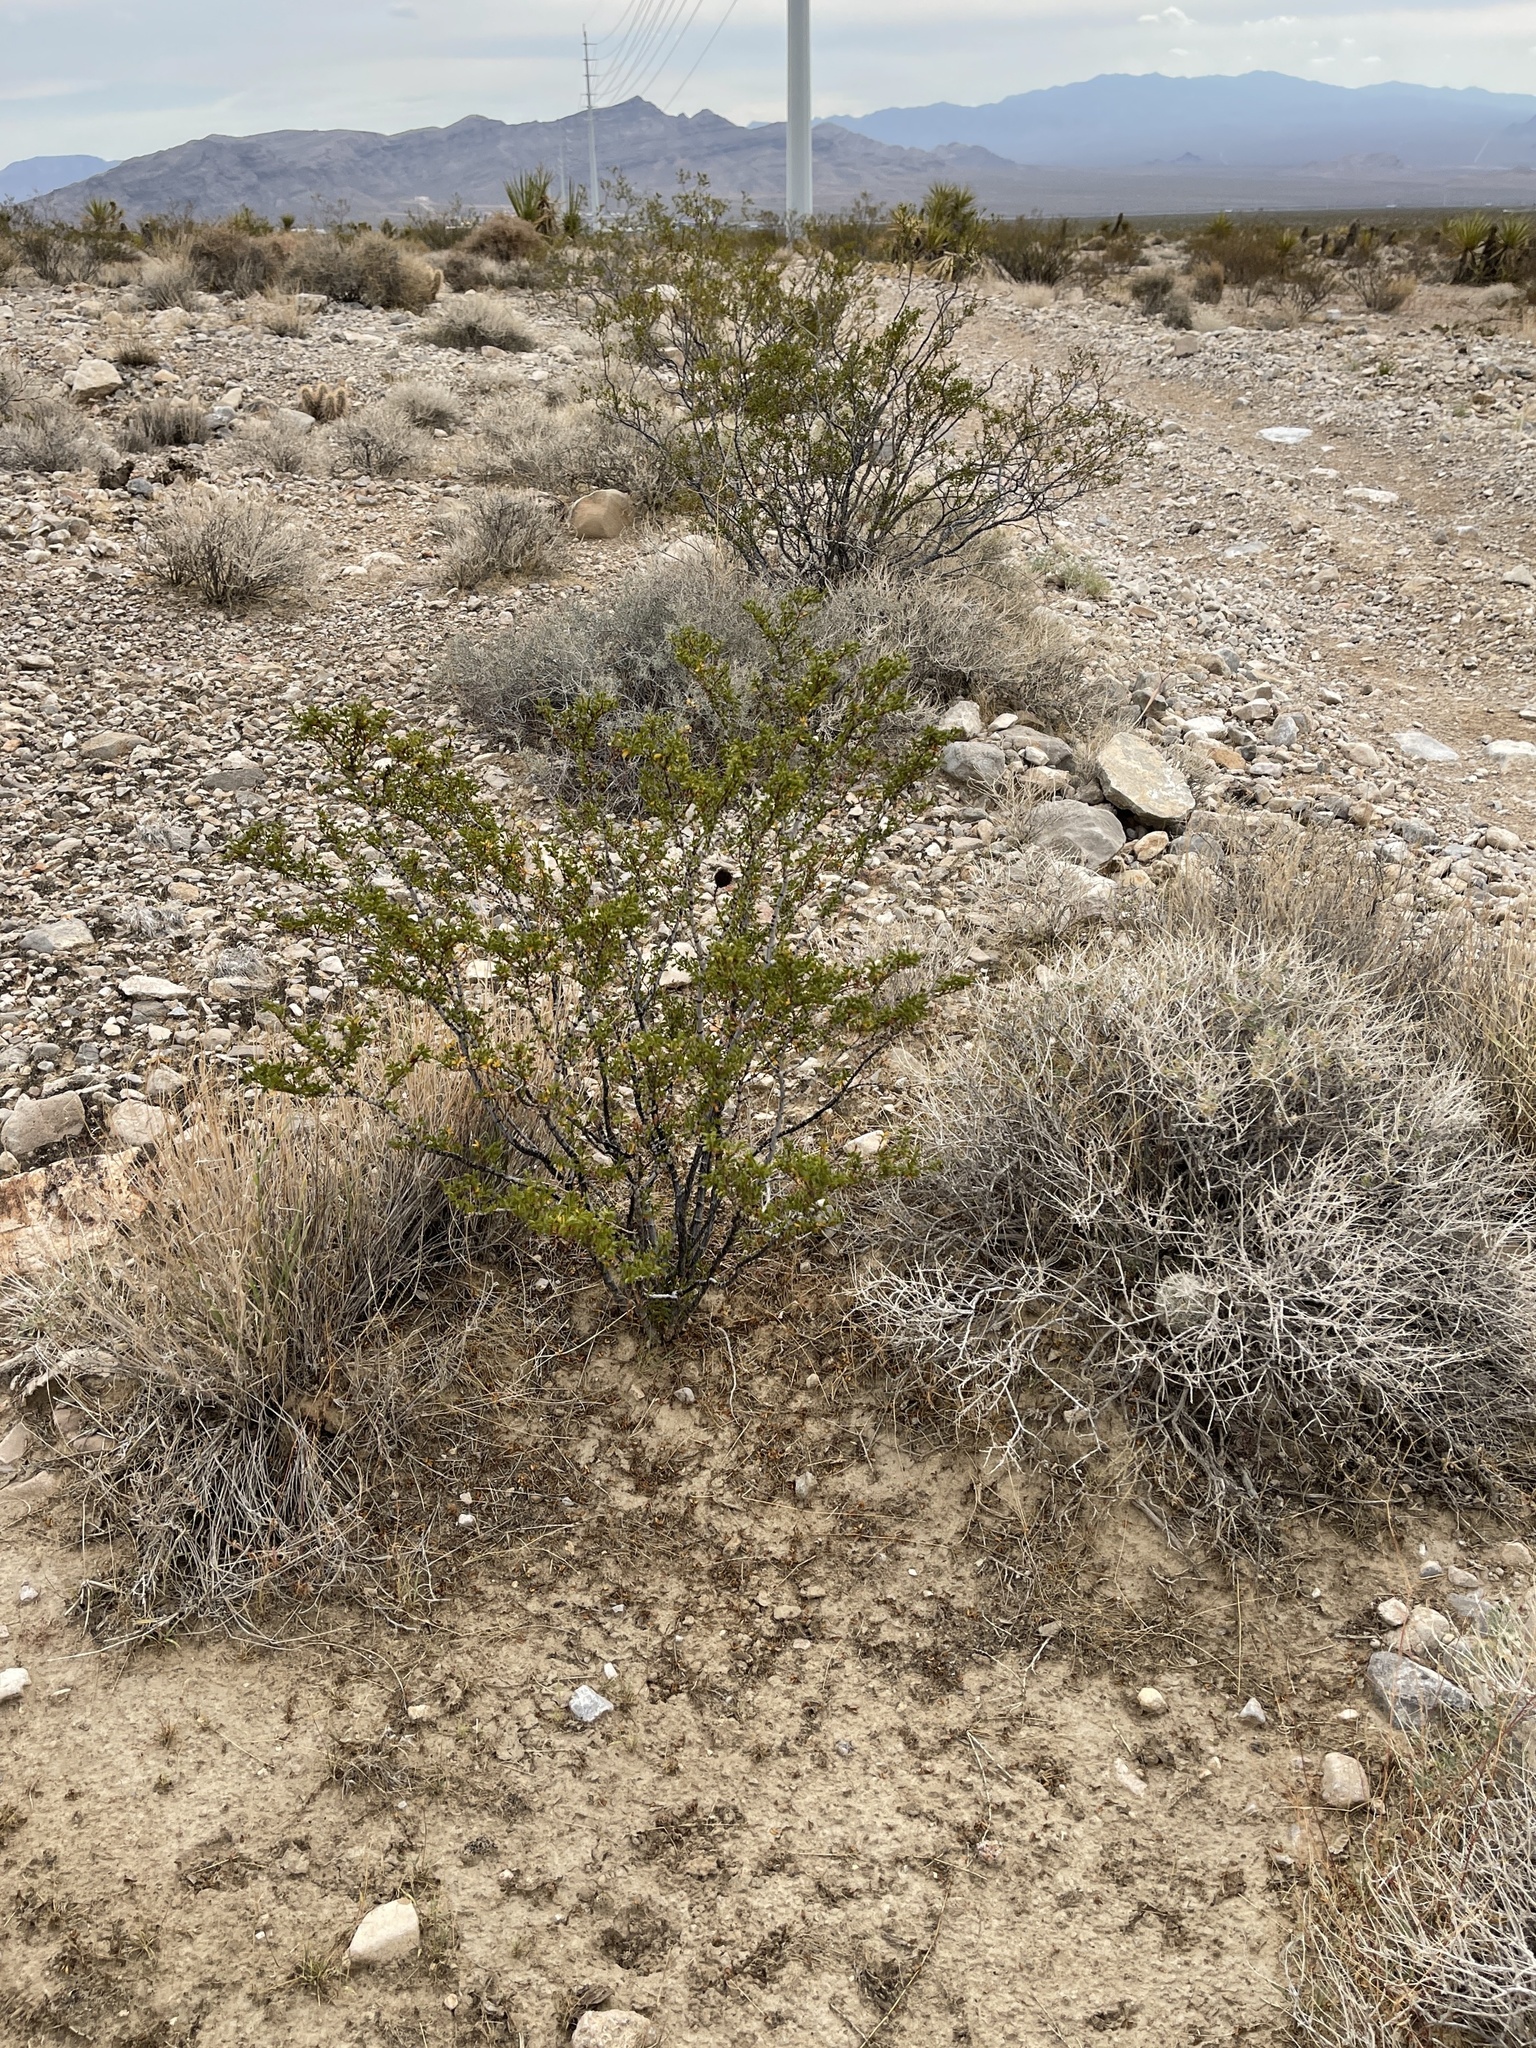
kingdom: Plantae
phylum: Tracheophyta
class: Magnoliopsida
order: Zygophyllales
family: Zygophyllaceae
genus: Larrea
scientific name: Larrea tridentata
